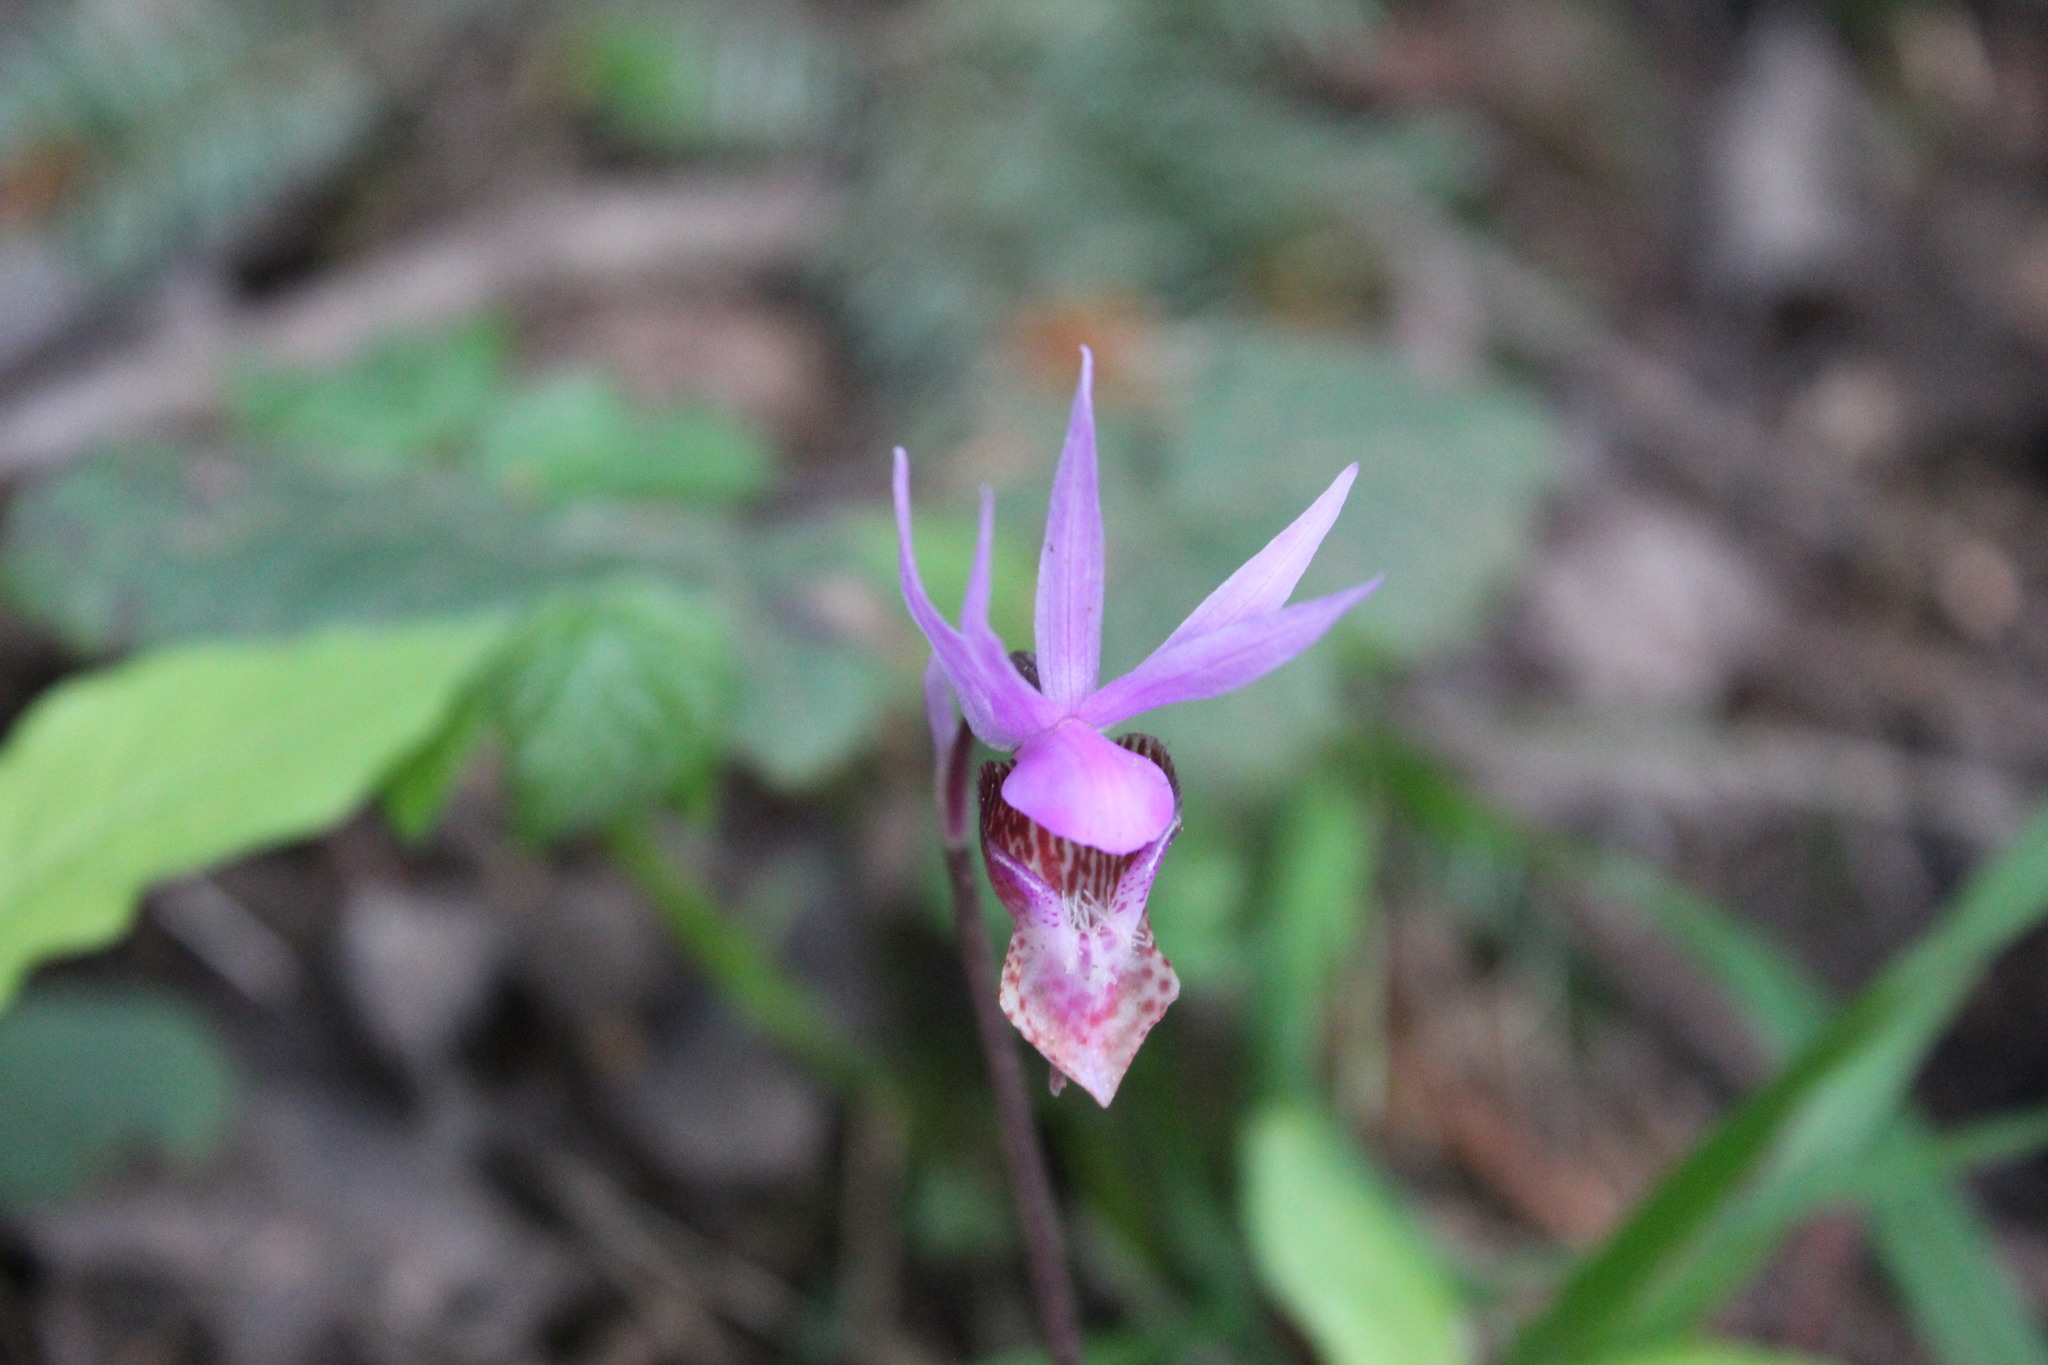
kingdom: Plantae
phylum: Tracheophyta
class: Liliopsida
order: Asparagales
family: Orchidaceae
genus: Calypso
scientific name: Calypso bulbosa
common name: Calypso
